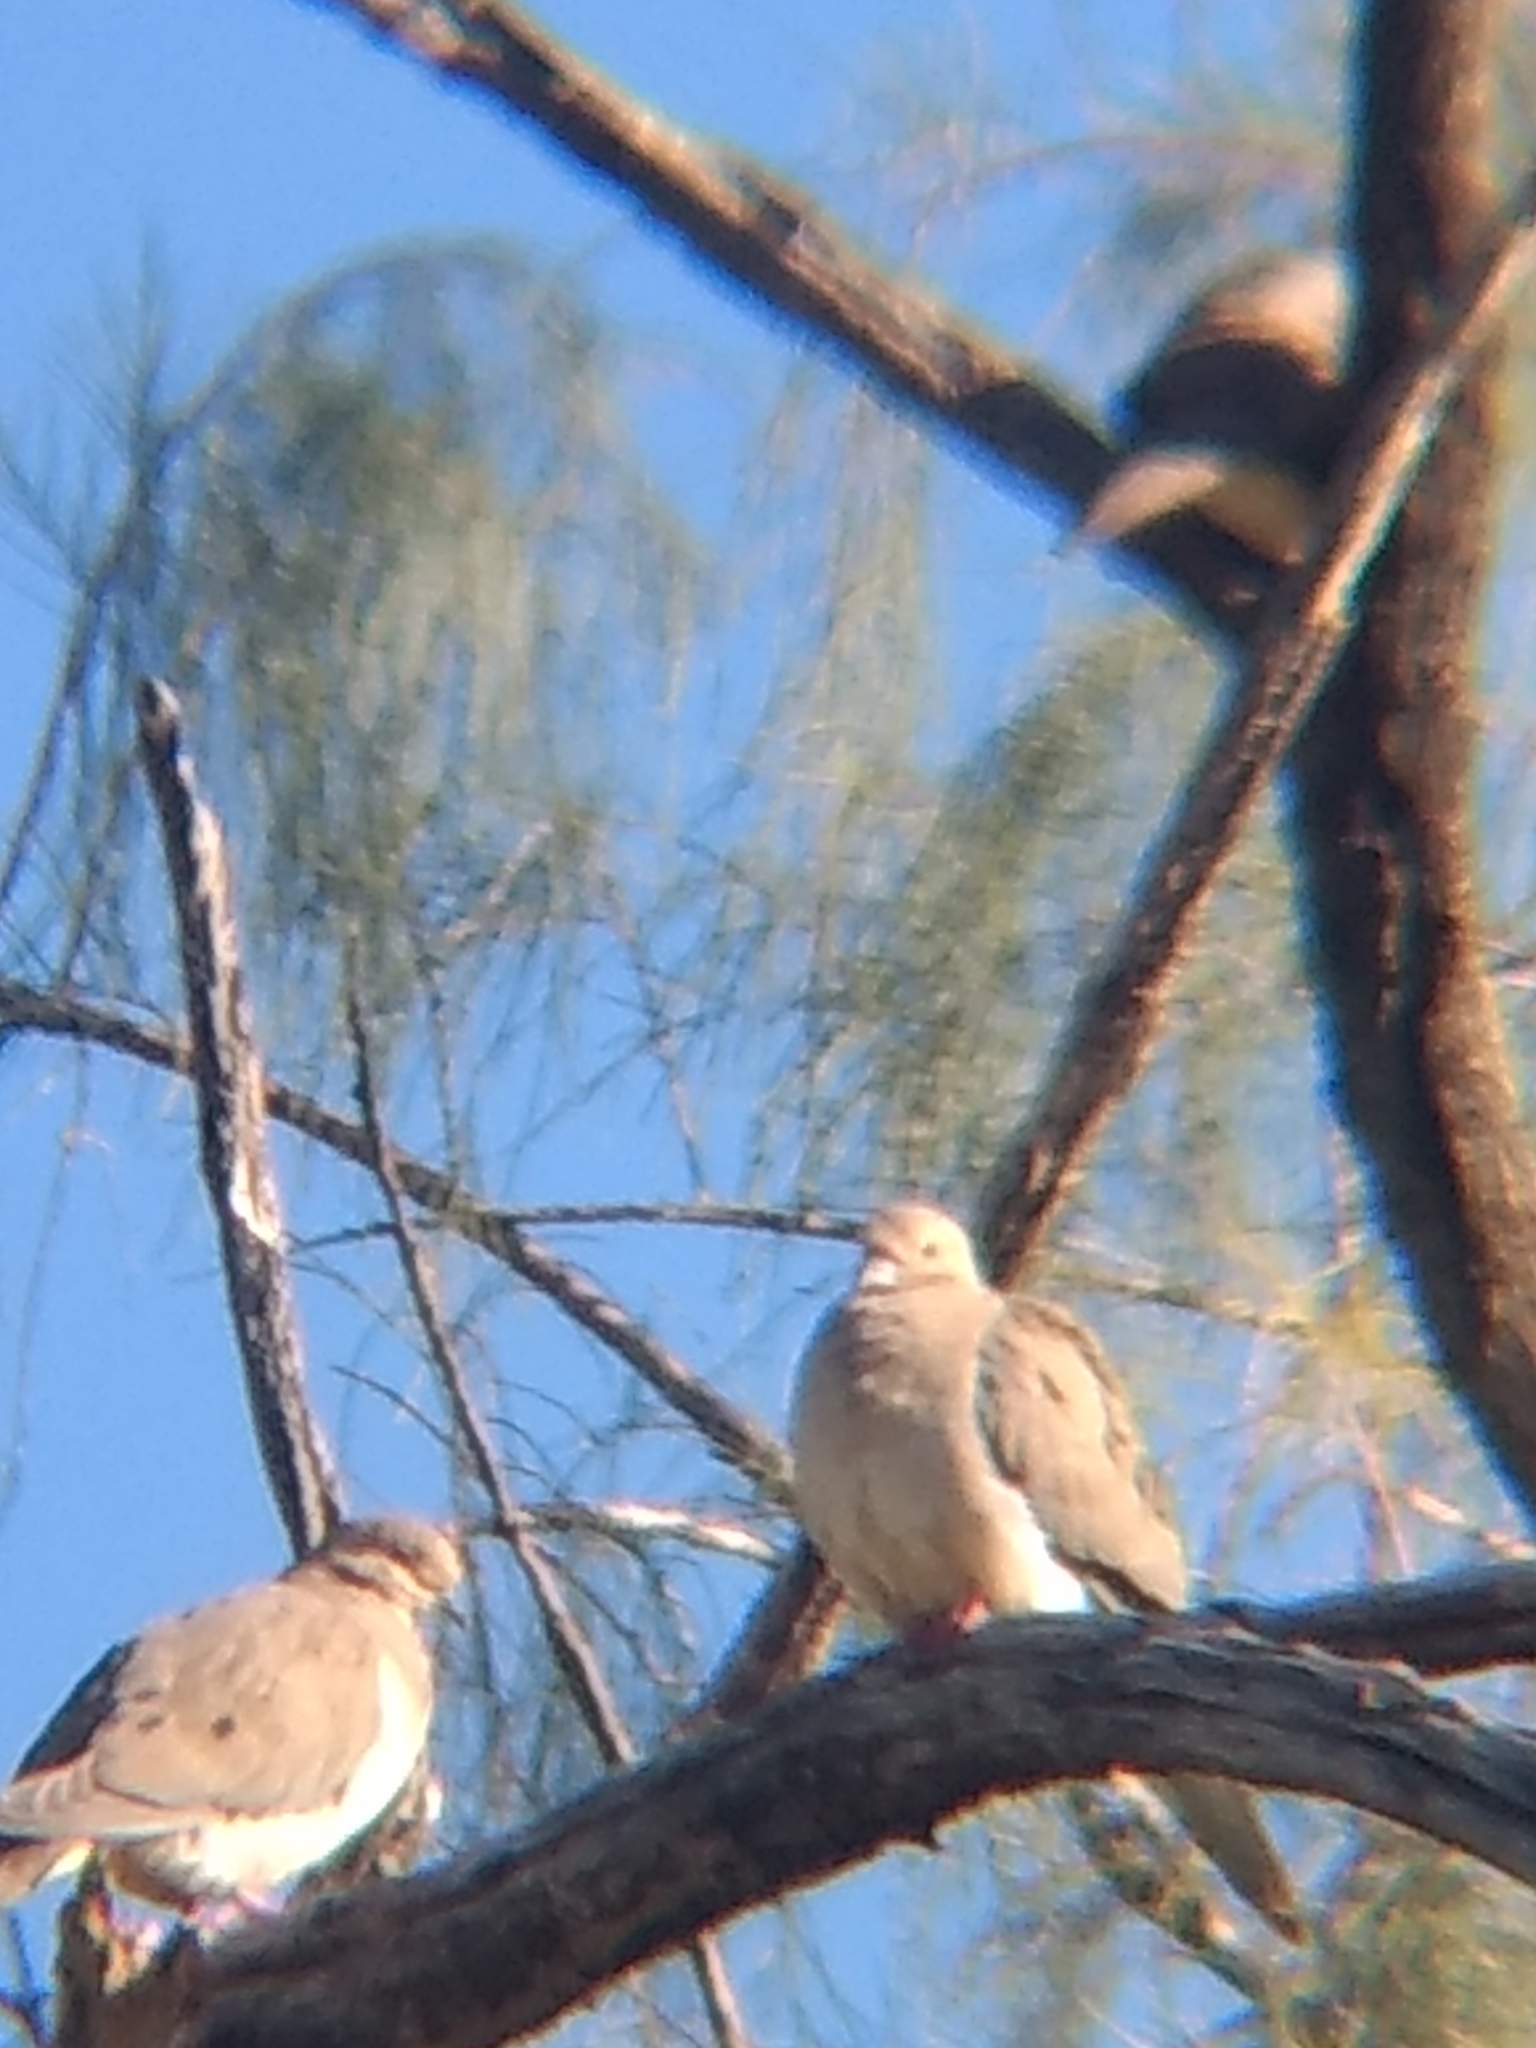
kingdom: Animalia
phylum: Chordata
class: Aves
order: Columbiformes
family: Columbidae
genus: Zenaida
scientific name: Zenaida macroura
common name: Mourning dove
